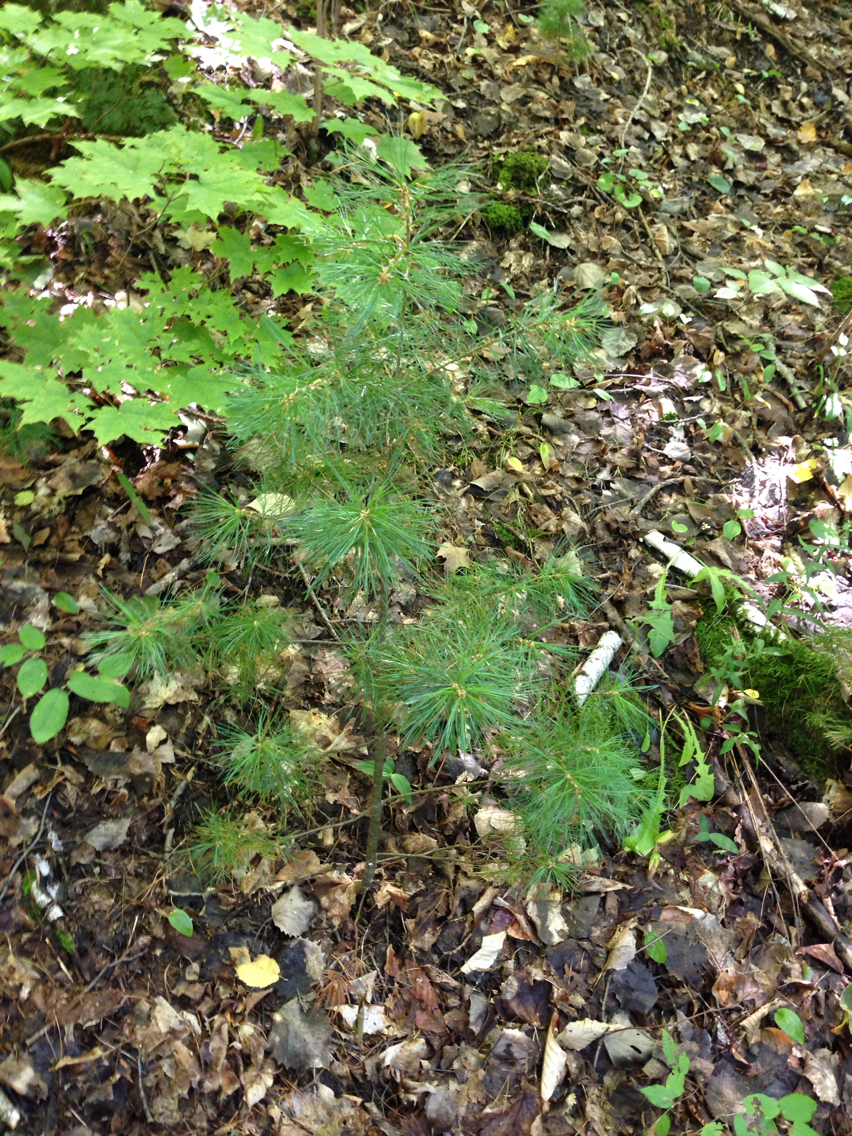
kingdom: Plantae
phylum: Tracheophyta
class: Pinopsida
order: Pinales
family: Pinaceae
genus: Pinus
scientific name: Pinus strobus
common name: Weymouth pine
